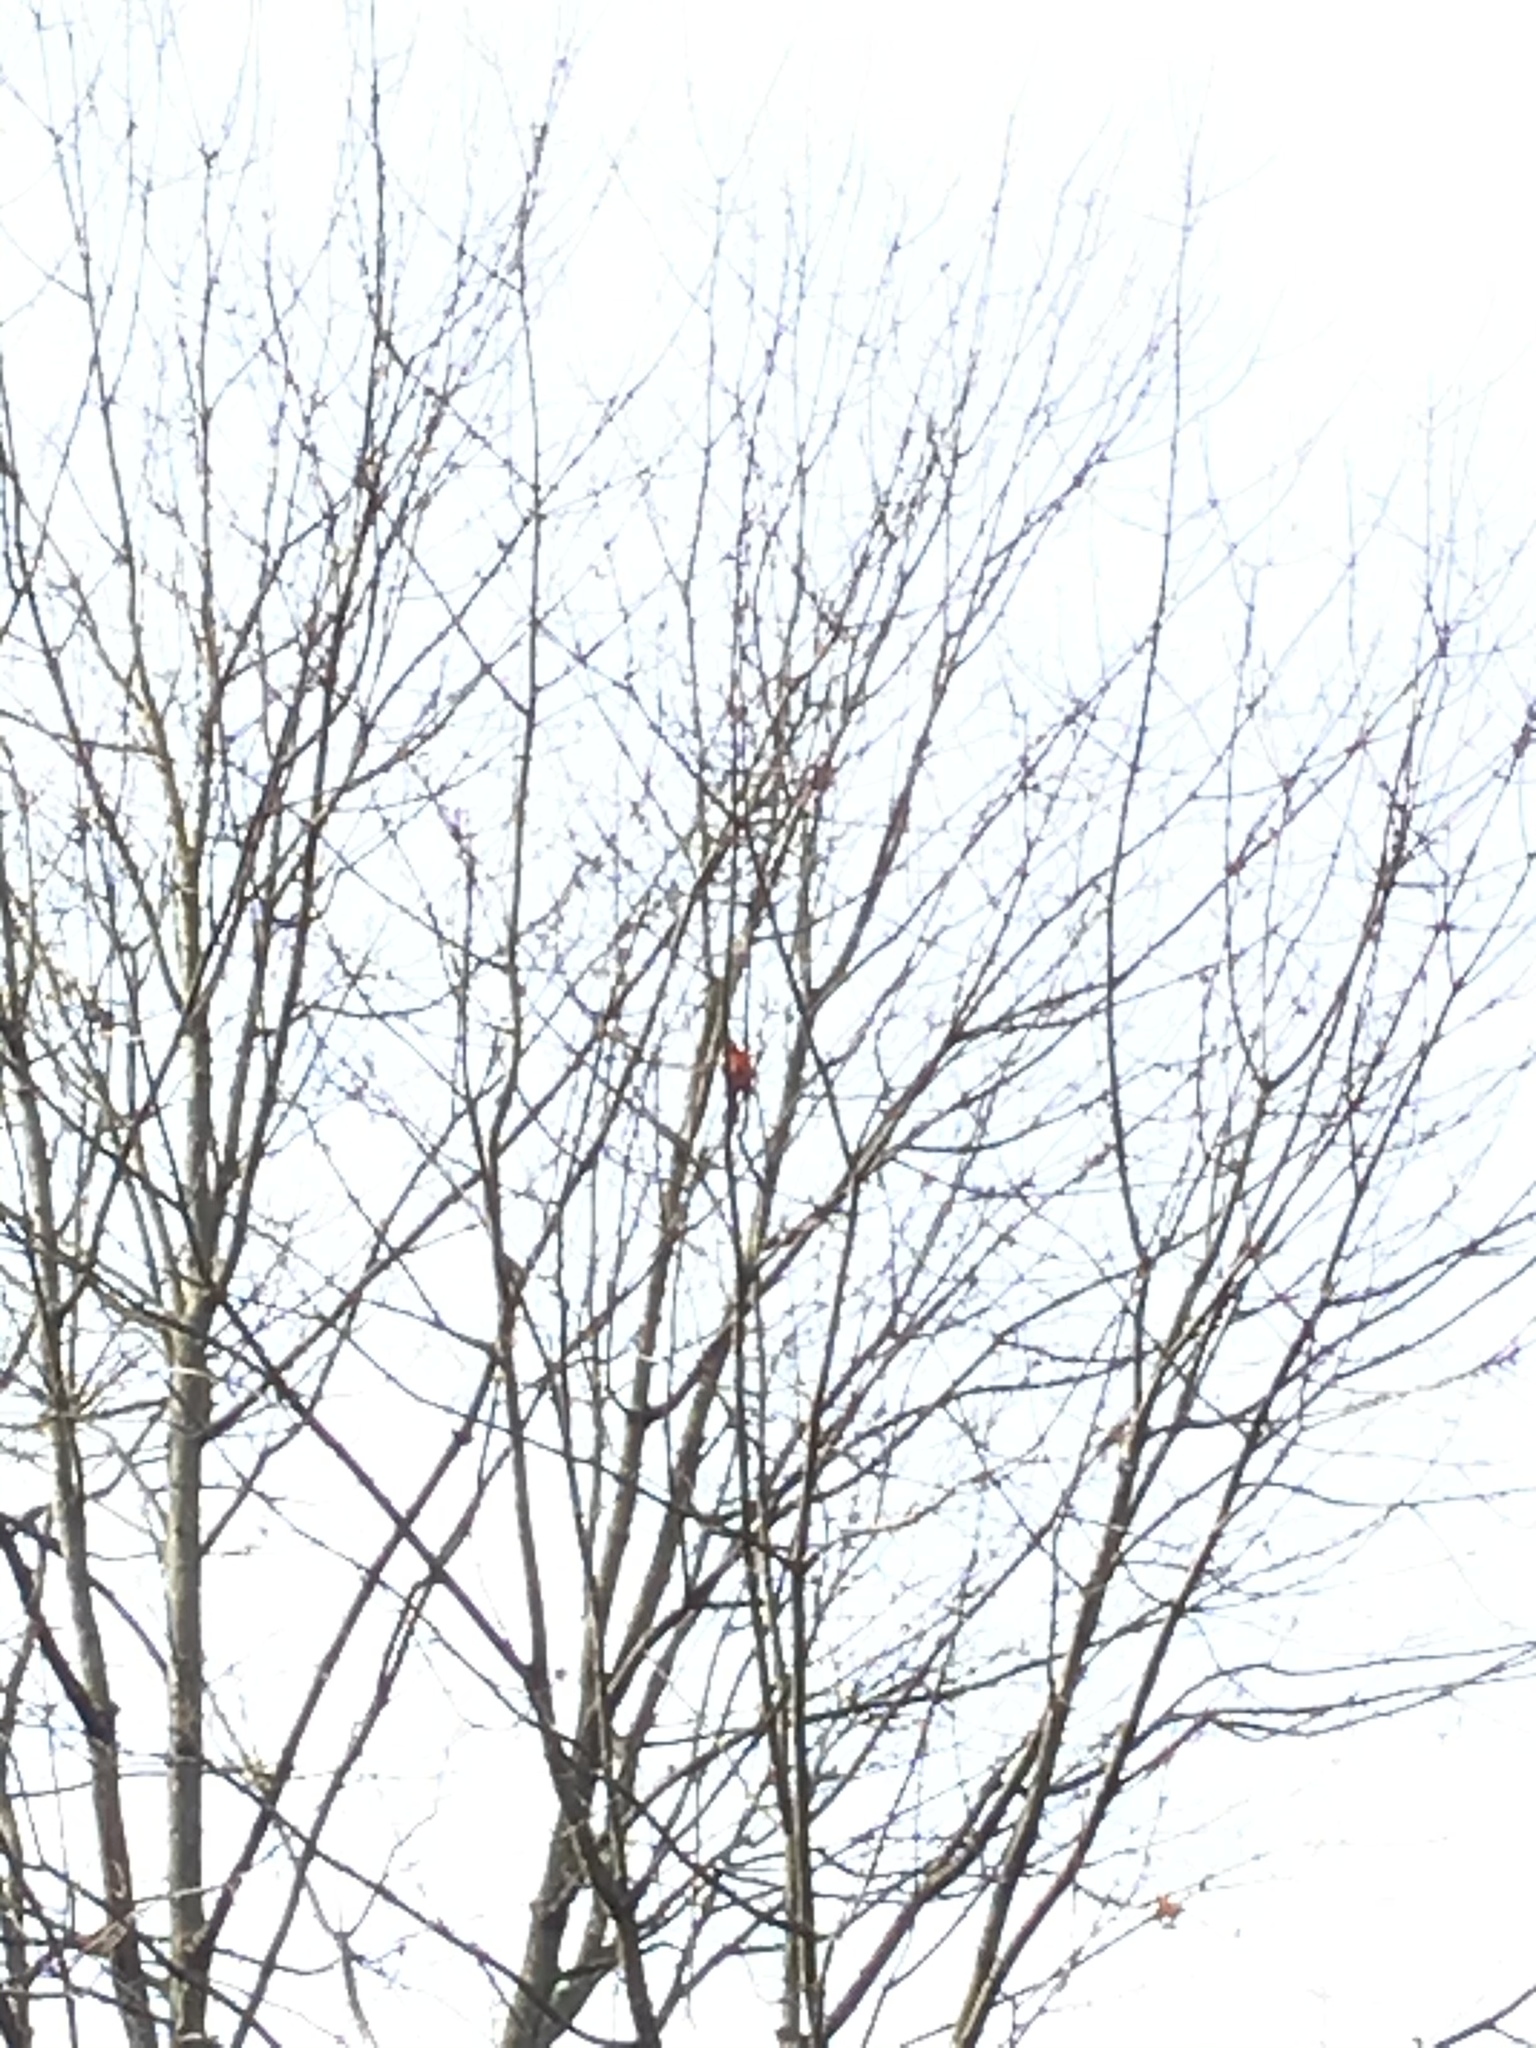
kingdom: Animalia
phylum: Chordata
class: Aves
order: Passeriformes
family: Cardinalidae
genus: Cardinalis
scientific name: Cardinalis cardinalis
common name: Northern cardinal
